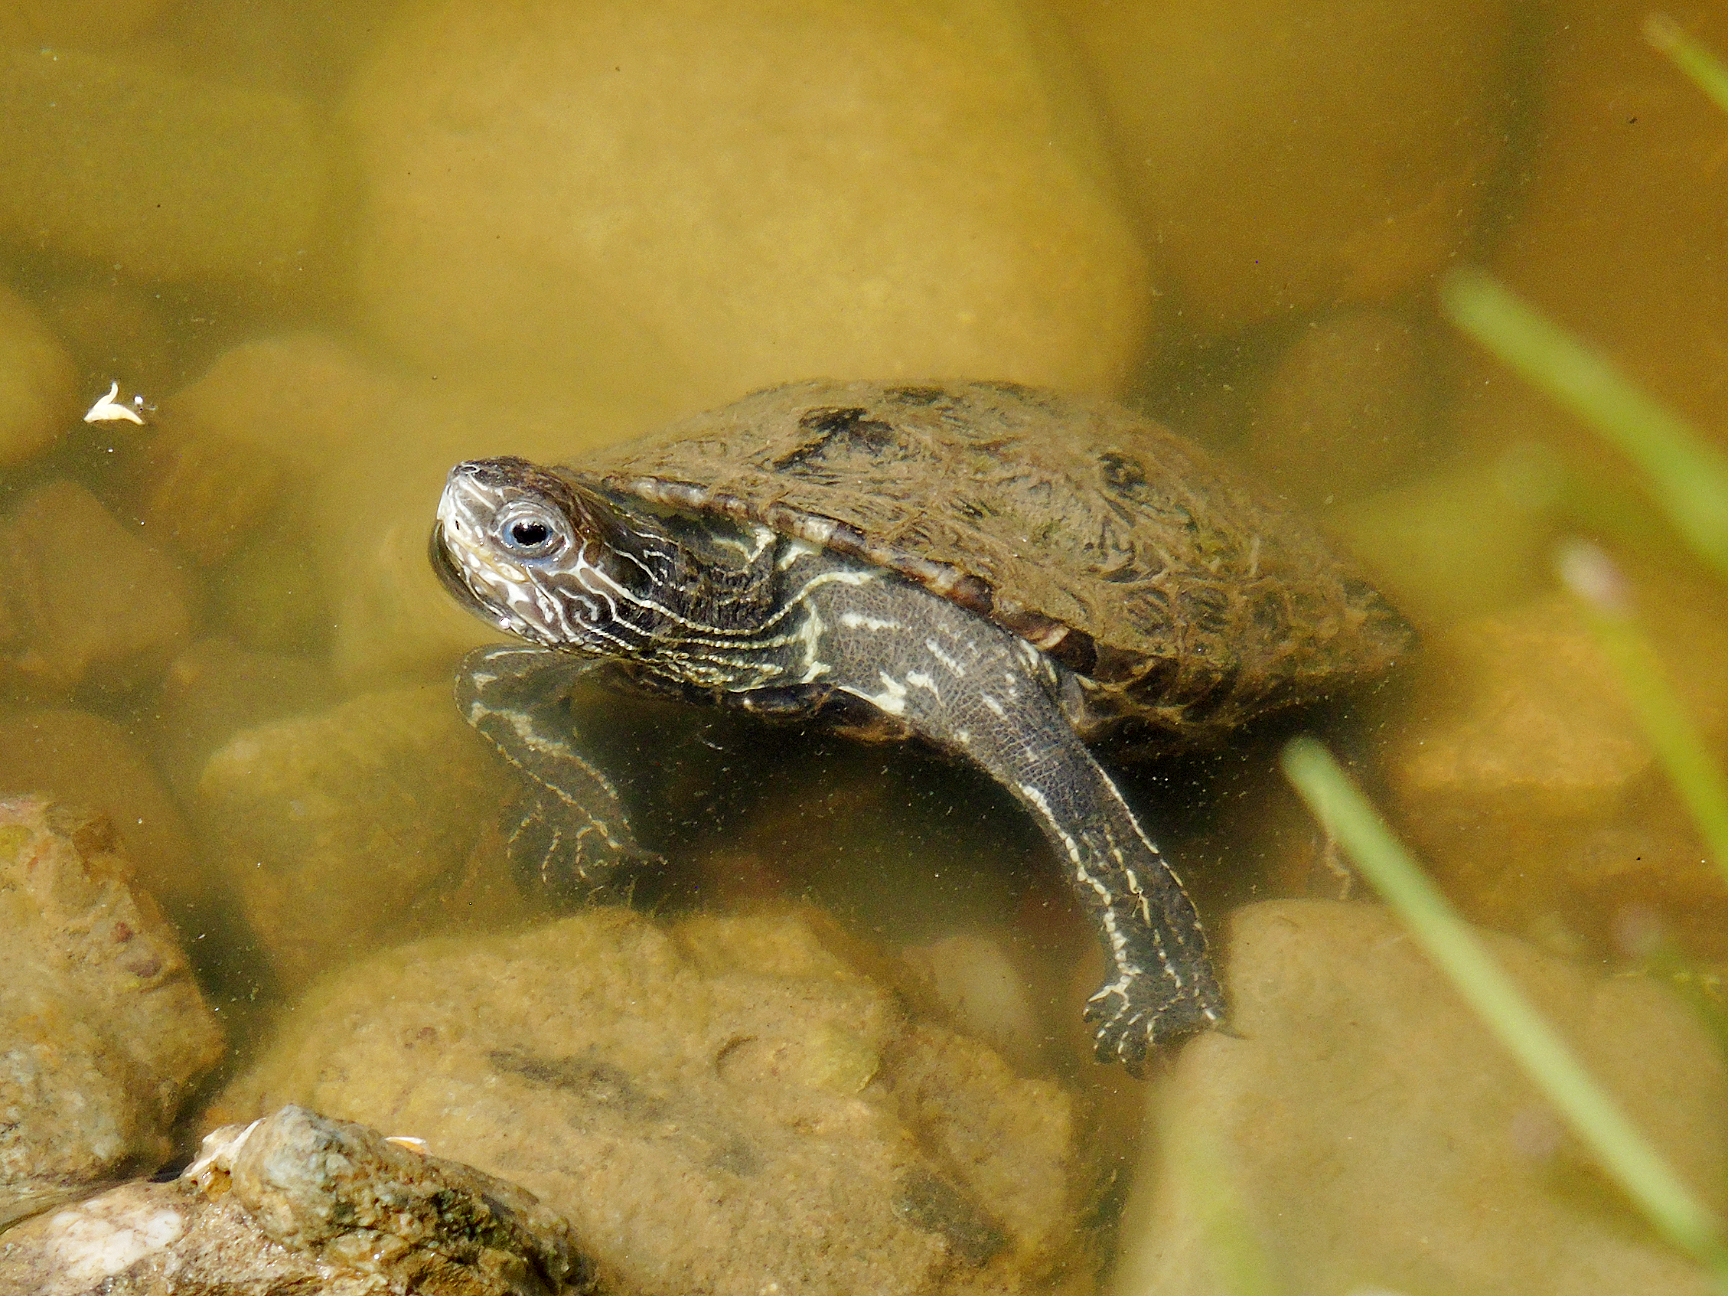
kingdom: Animalia
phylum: Chordata
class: Testudines
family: Geoemydidae
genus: Mauremys
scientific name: Mauremys caspica
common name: Caspian turtle
